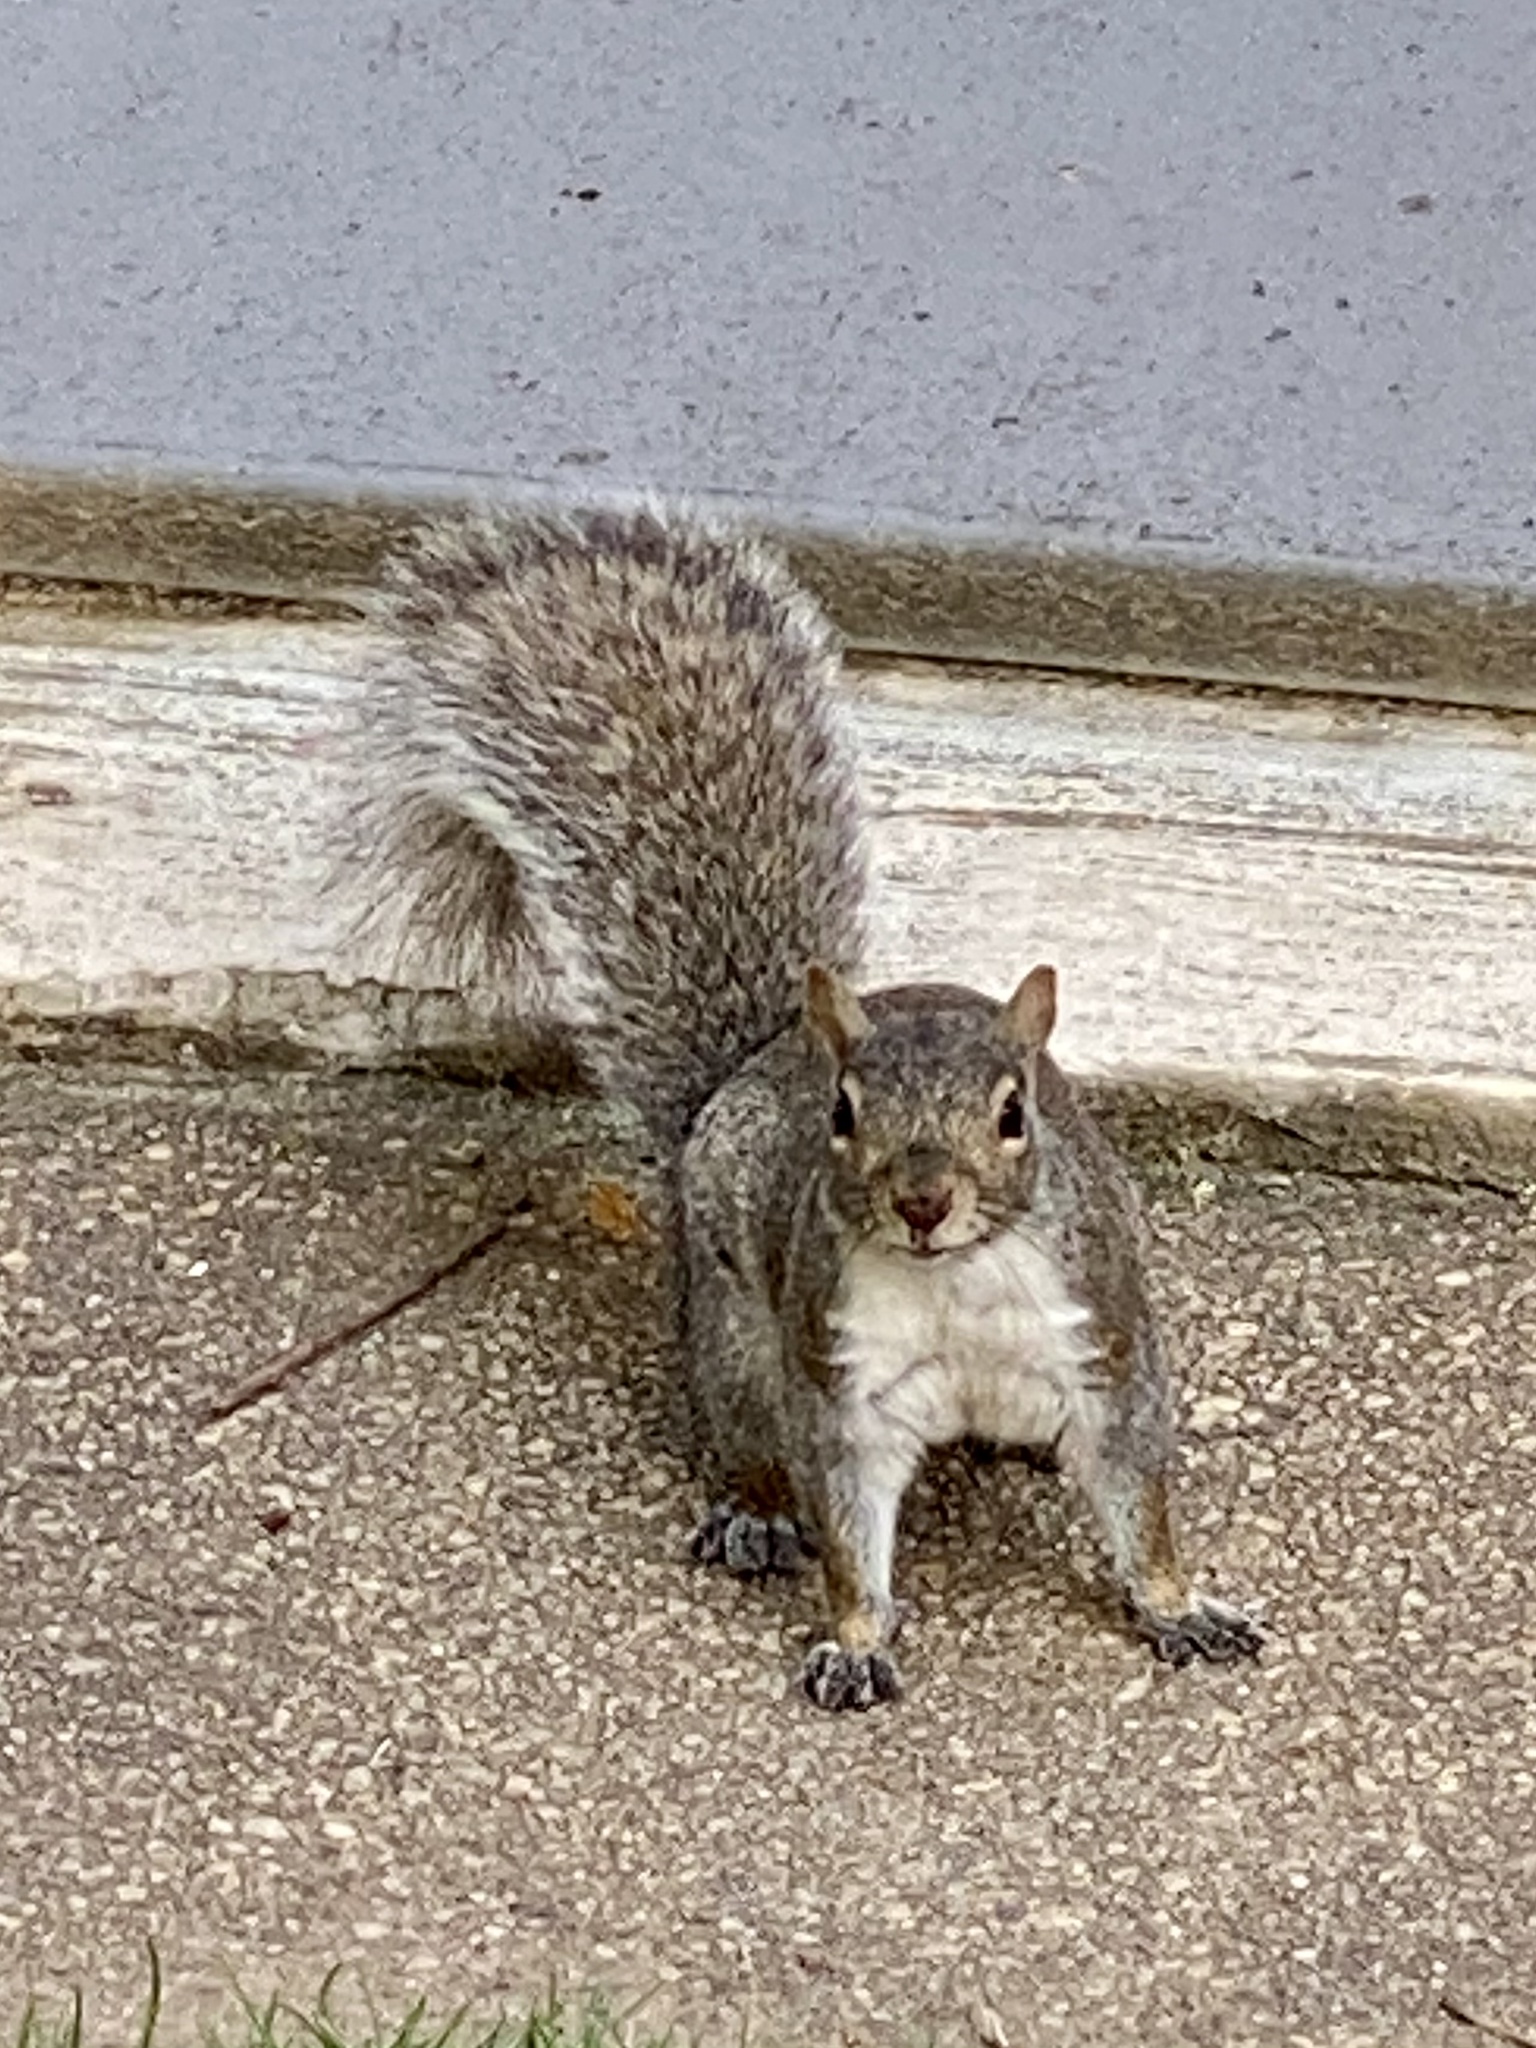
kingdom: Animalia
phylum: Chordata
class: Mammalia
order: Rodentia
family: Sciuridae
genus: Sciurus
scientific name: Sciurus carolinensis
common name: Eastern gray squirrel
